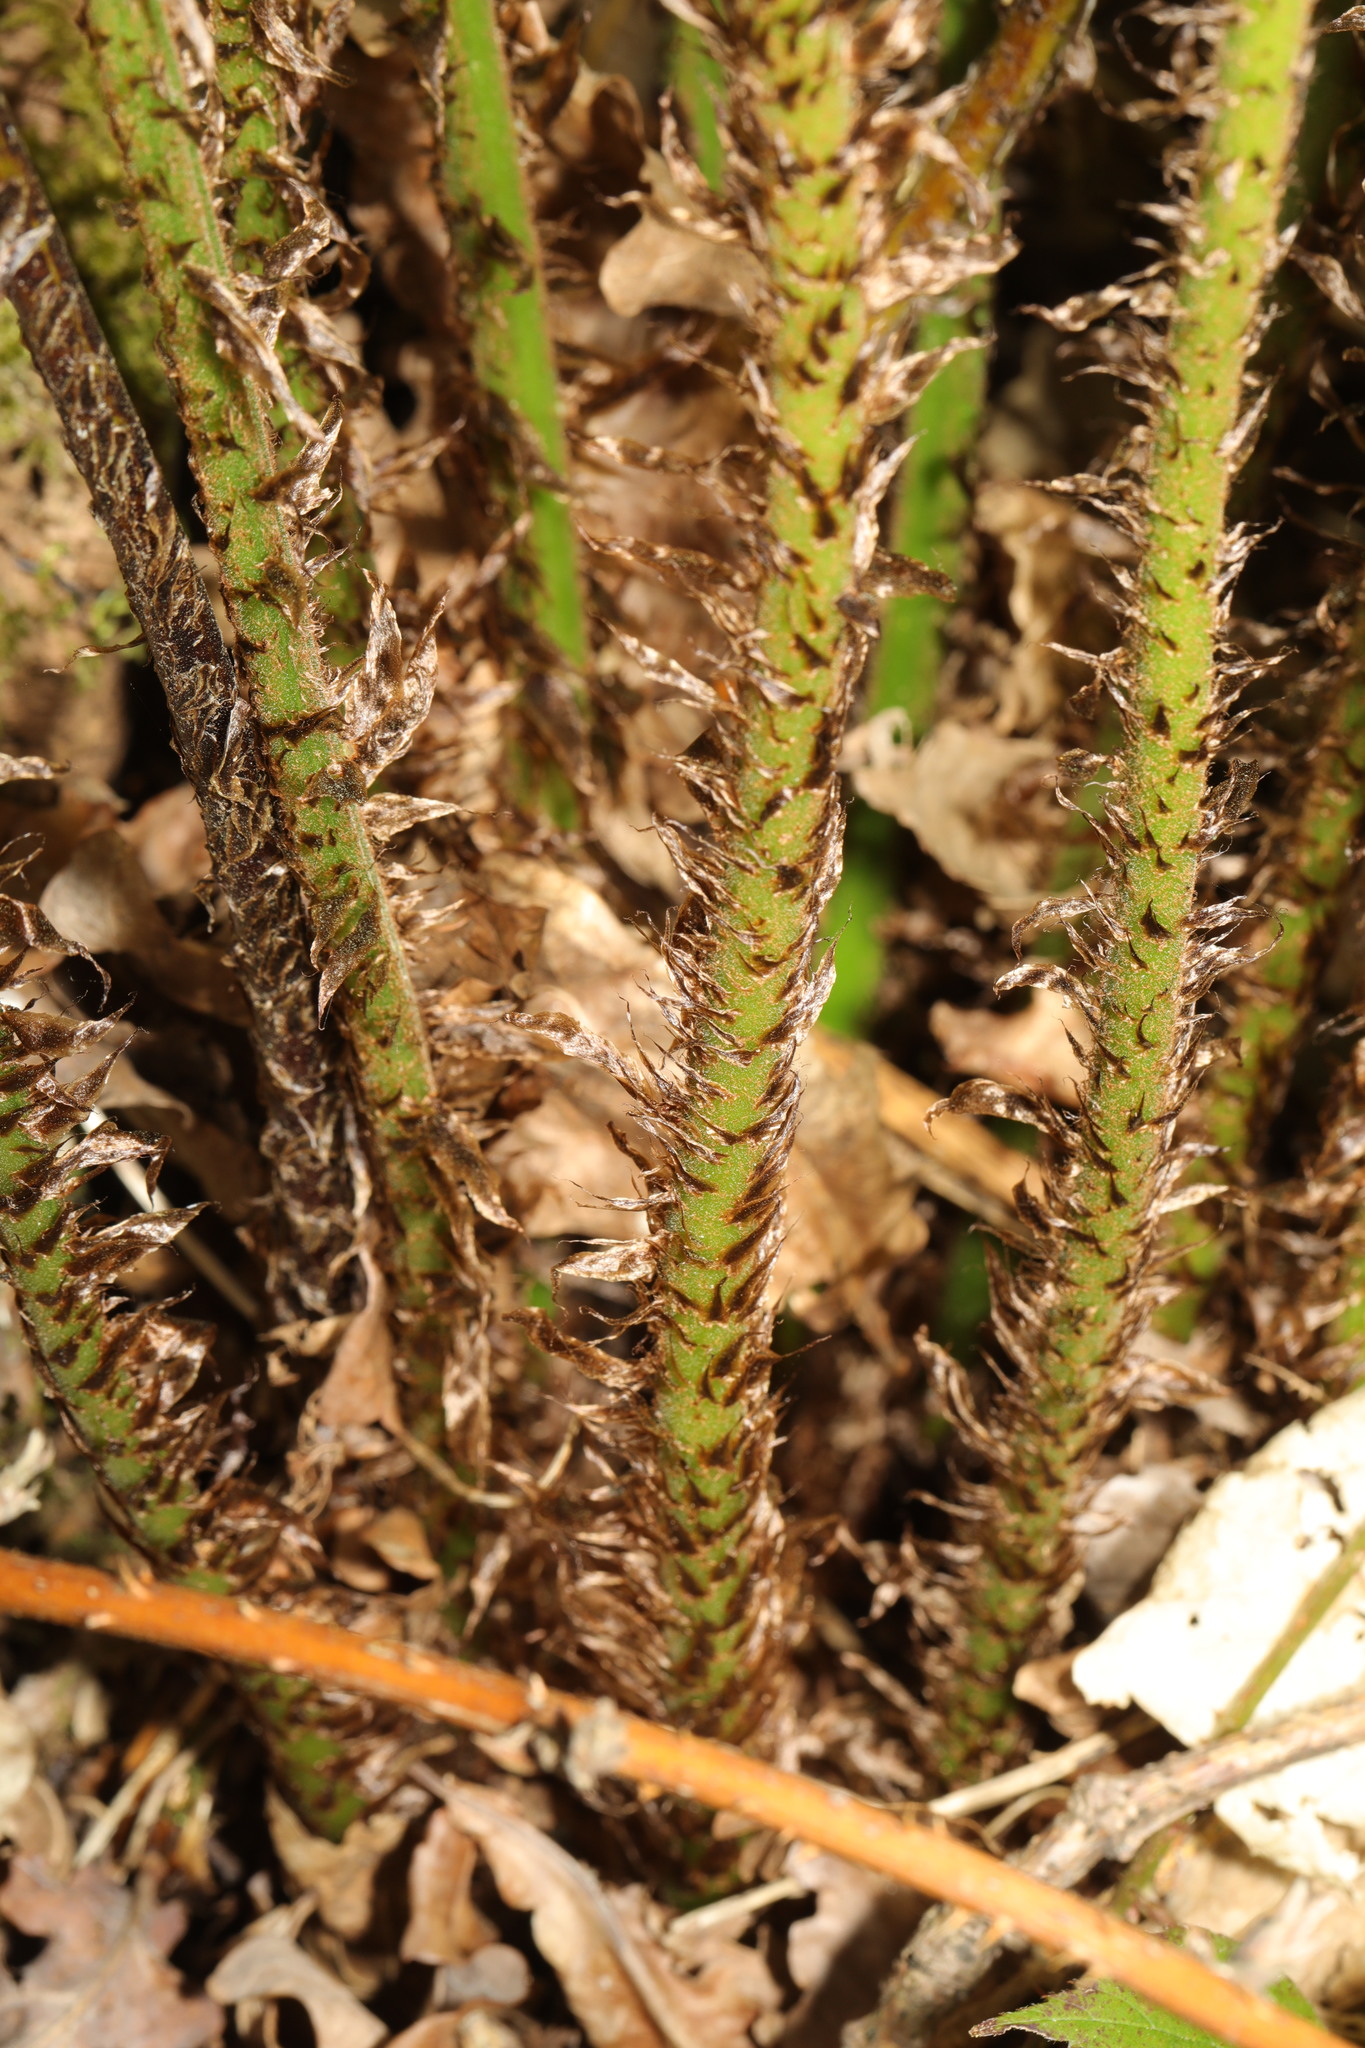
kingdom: Plantae
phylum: Tracheophyta
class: Polypodiopsida
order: Polypodiales
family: Dryopteridaceae
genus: Dryopteris
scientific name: Dryopteris dilatata
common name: Broad buckler-fern
